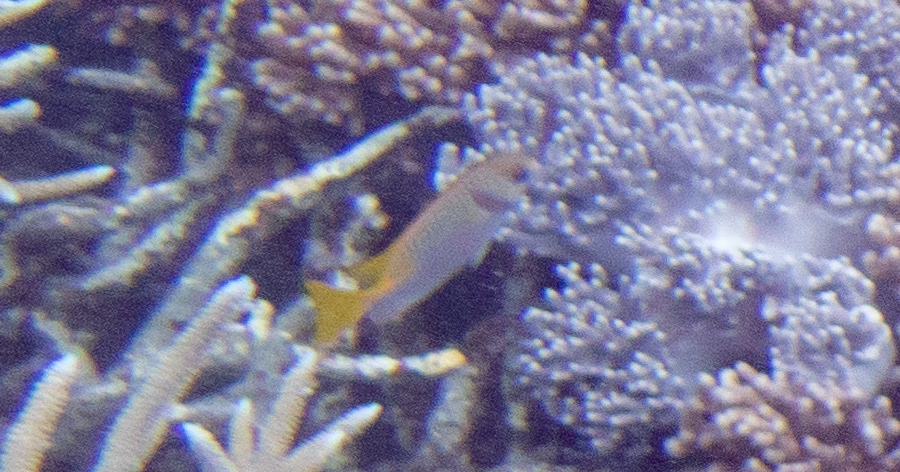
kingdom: Animalia
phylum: Chordata
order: Perciformes
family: Siganidae
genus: Siganus
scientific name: Siganus doliatus
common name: Barred spinefoot
